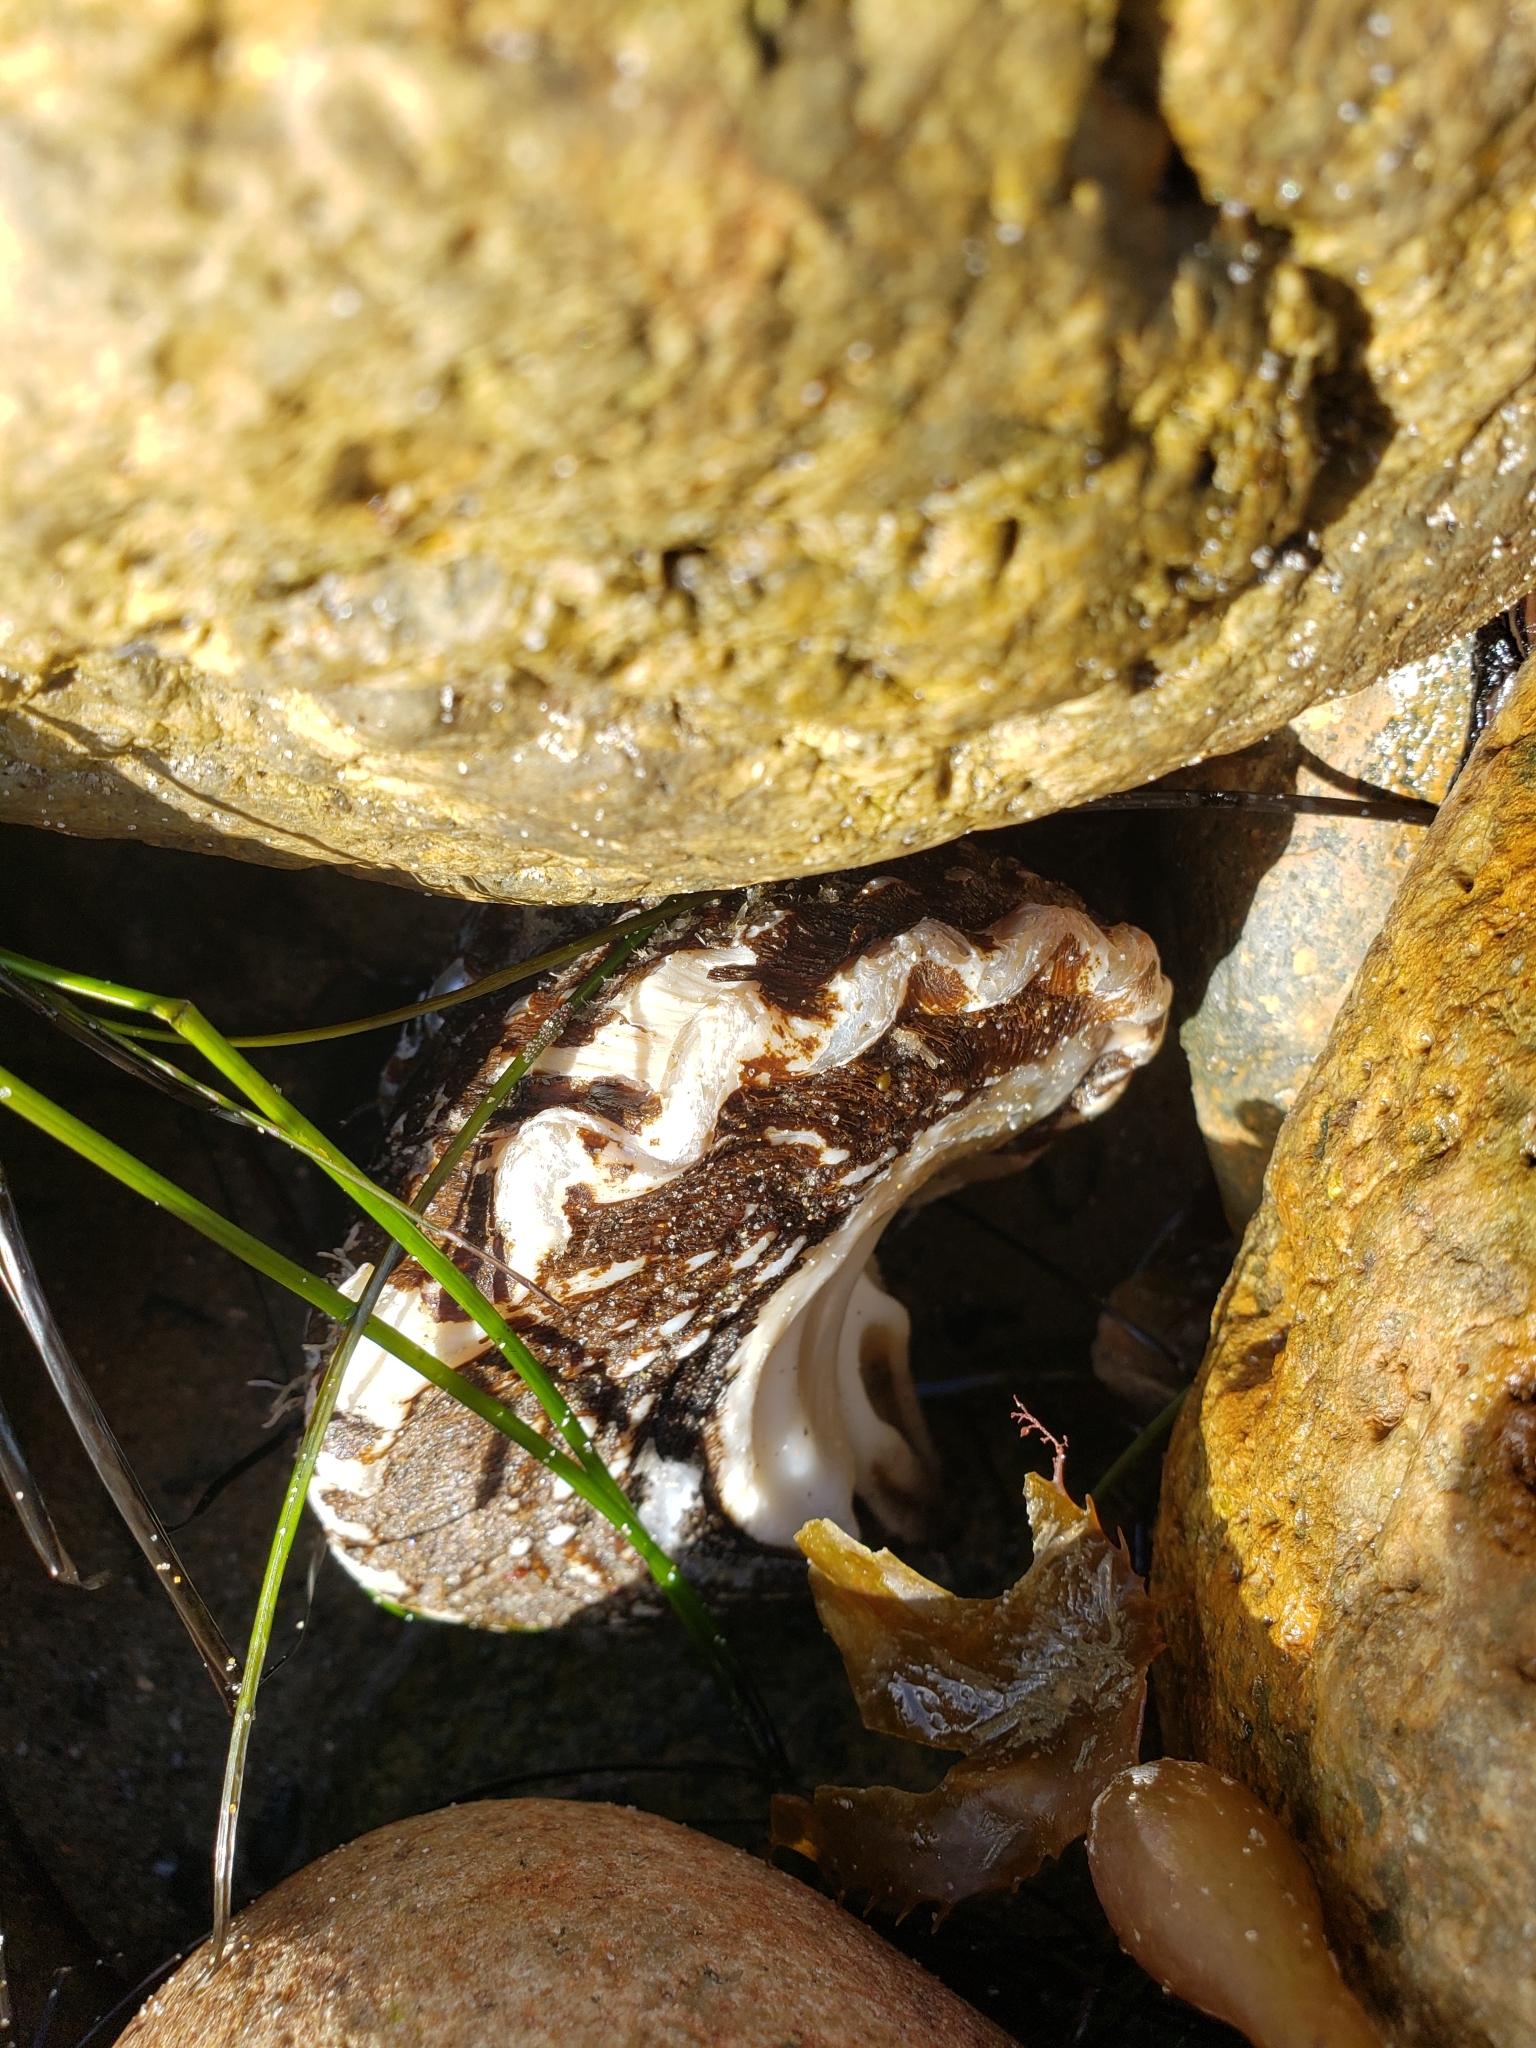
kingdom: Animalia
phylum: Mollusca
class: Gastropoda
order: Trochida
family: Turbinidae
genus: Megastraea
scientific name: Megastraea undosa
